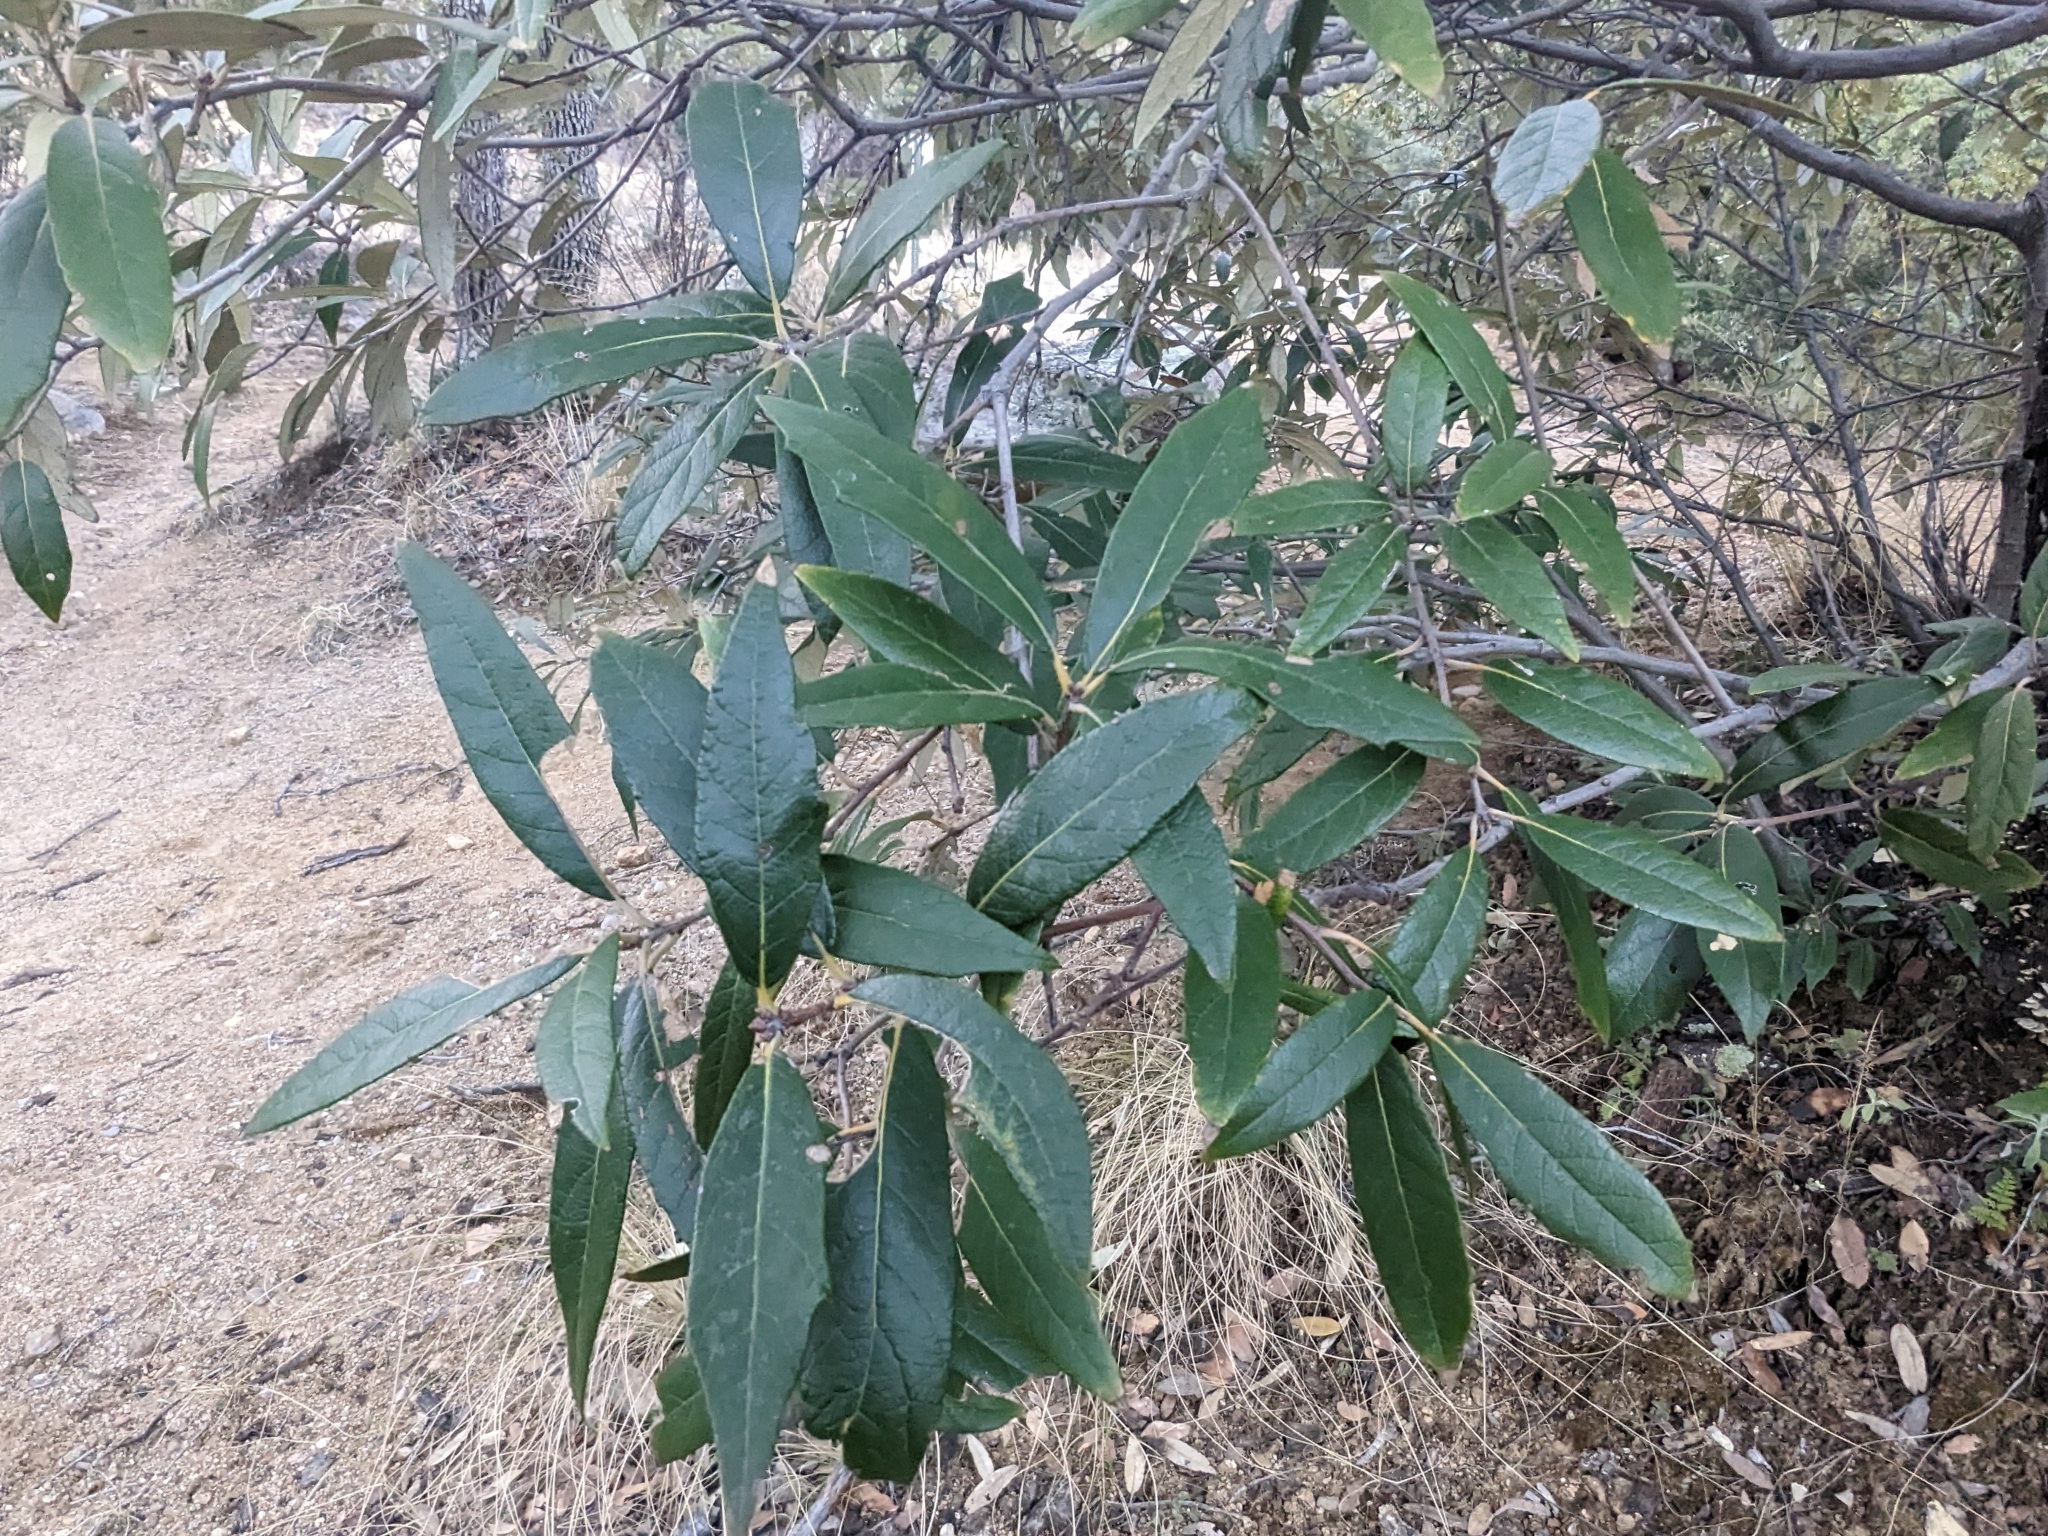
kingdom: Plantae
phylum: Tracheophyta
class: Magnoliopsida
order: Fagales
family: Fagaceae
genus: Quercus
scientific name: Quercus hypoleucoides
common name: Silverleaf oak
